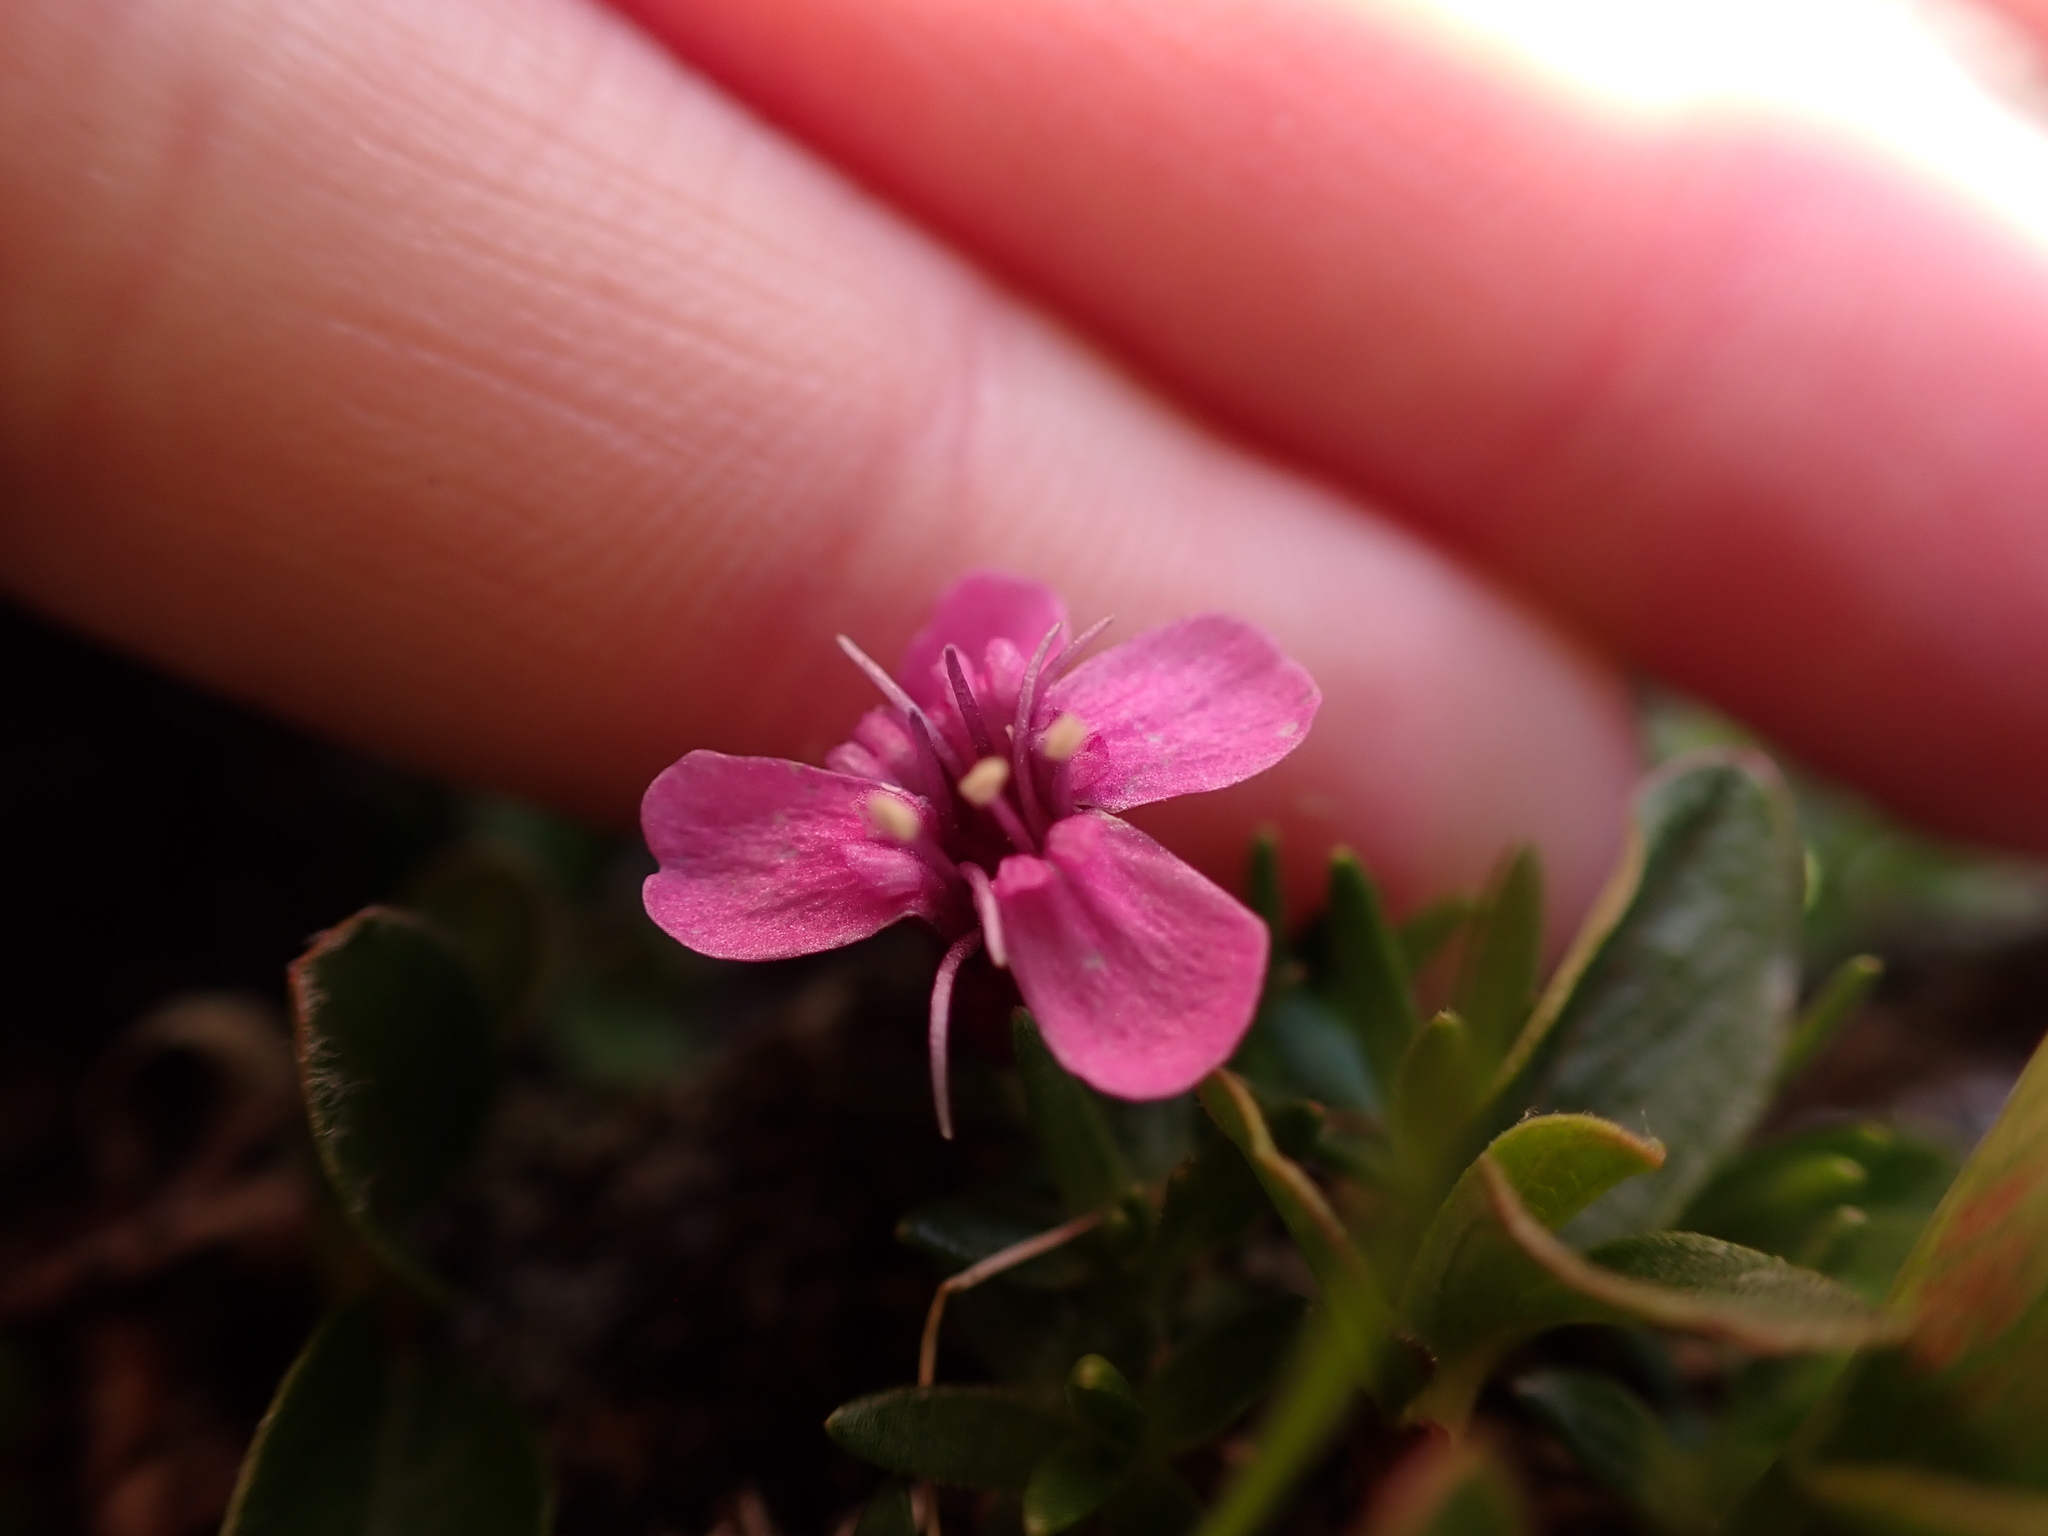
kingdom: Plantae
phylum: Tracheophyta
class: Magnoliopsida
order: Caryophyllales
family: Caryophyllaceae
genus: Silene
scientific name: Silene acaulis
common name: Moss campion
